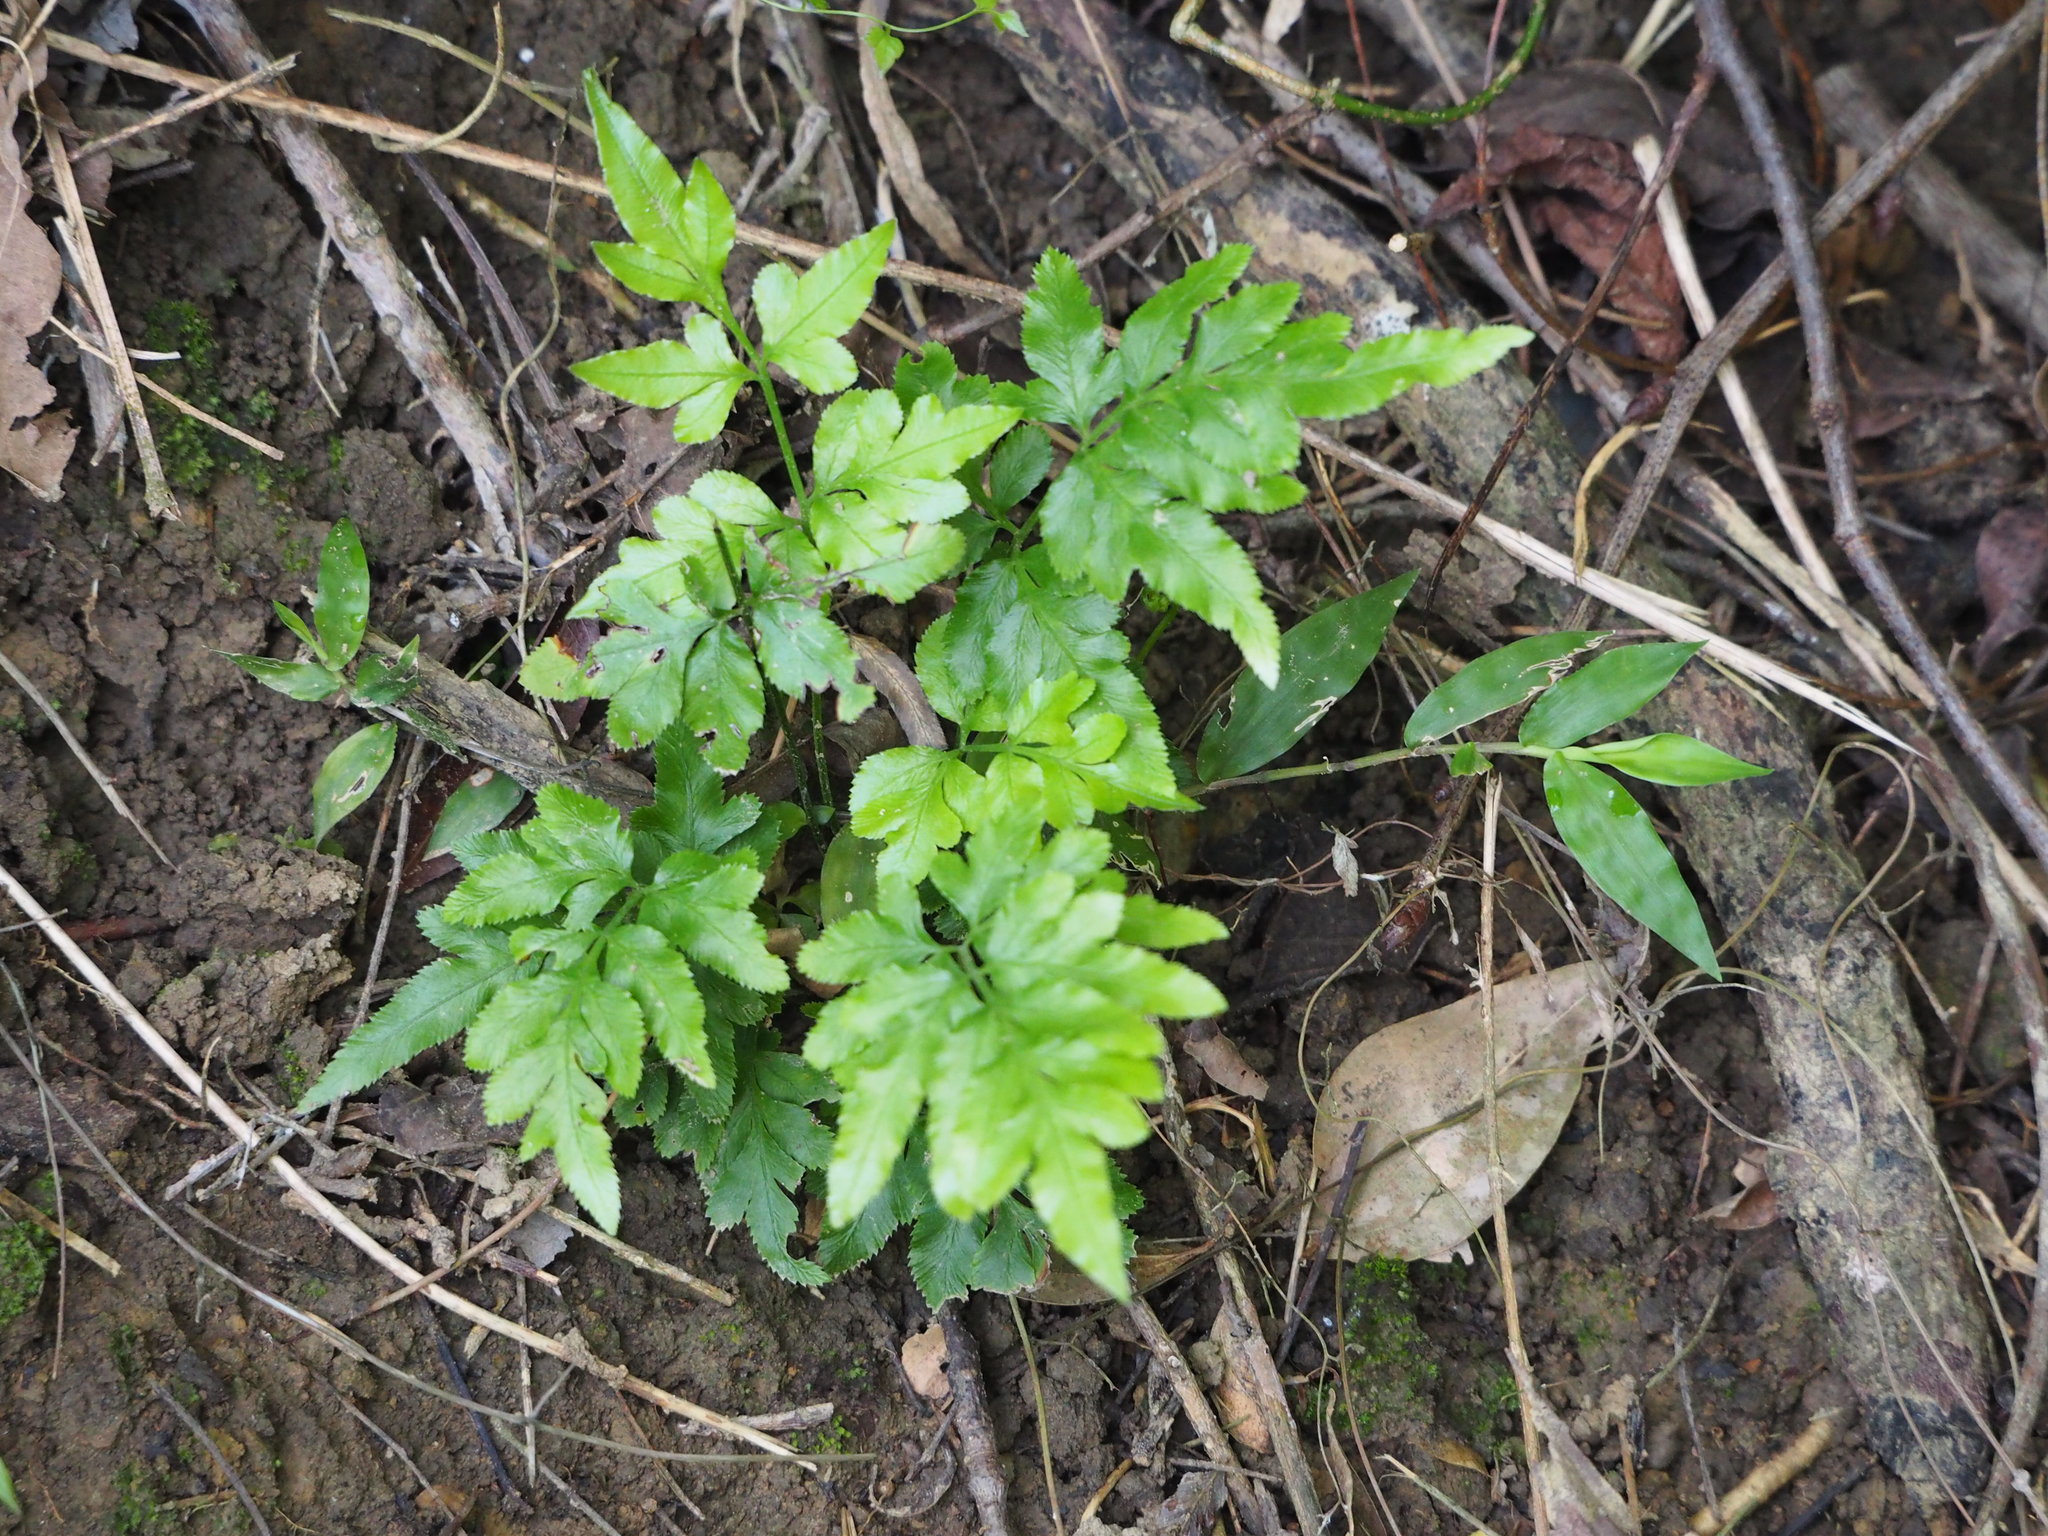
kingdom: Plantae
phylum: Tracheophyta
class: Polypodiopsida
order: Polypodiales
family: Pteridaceae
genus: Pteris
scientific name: Pteris ensiformis
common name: Sword brake
